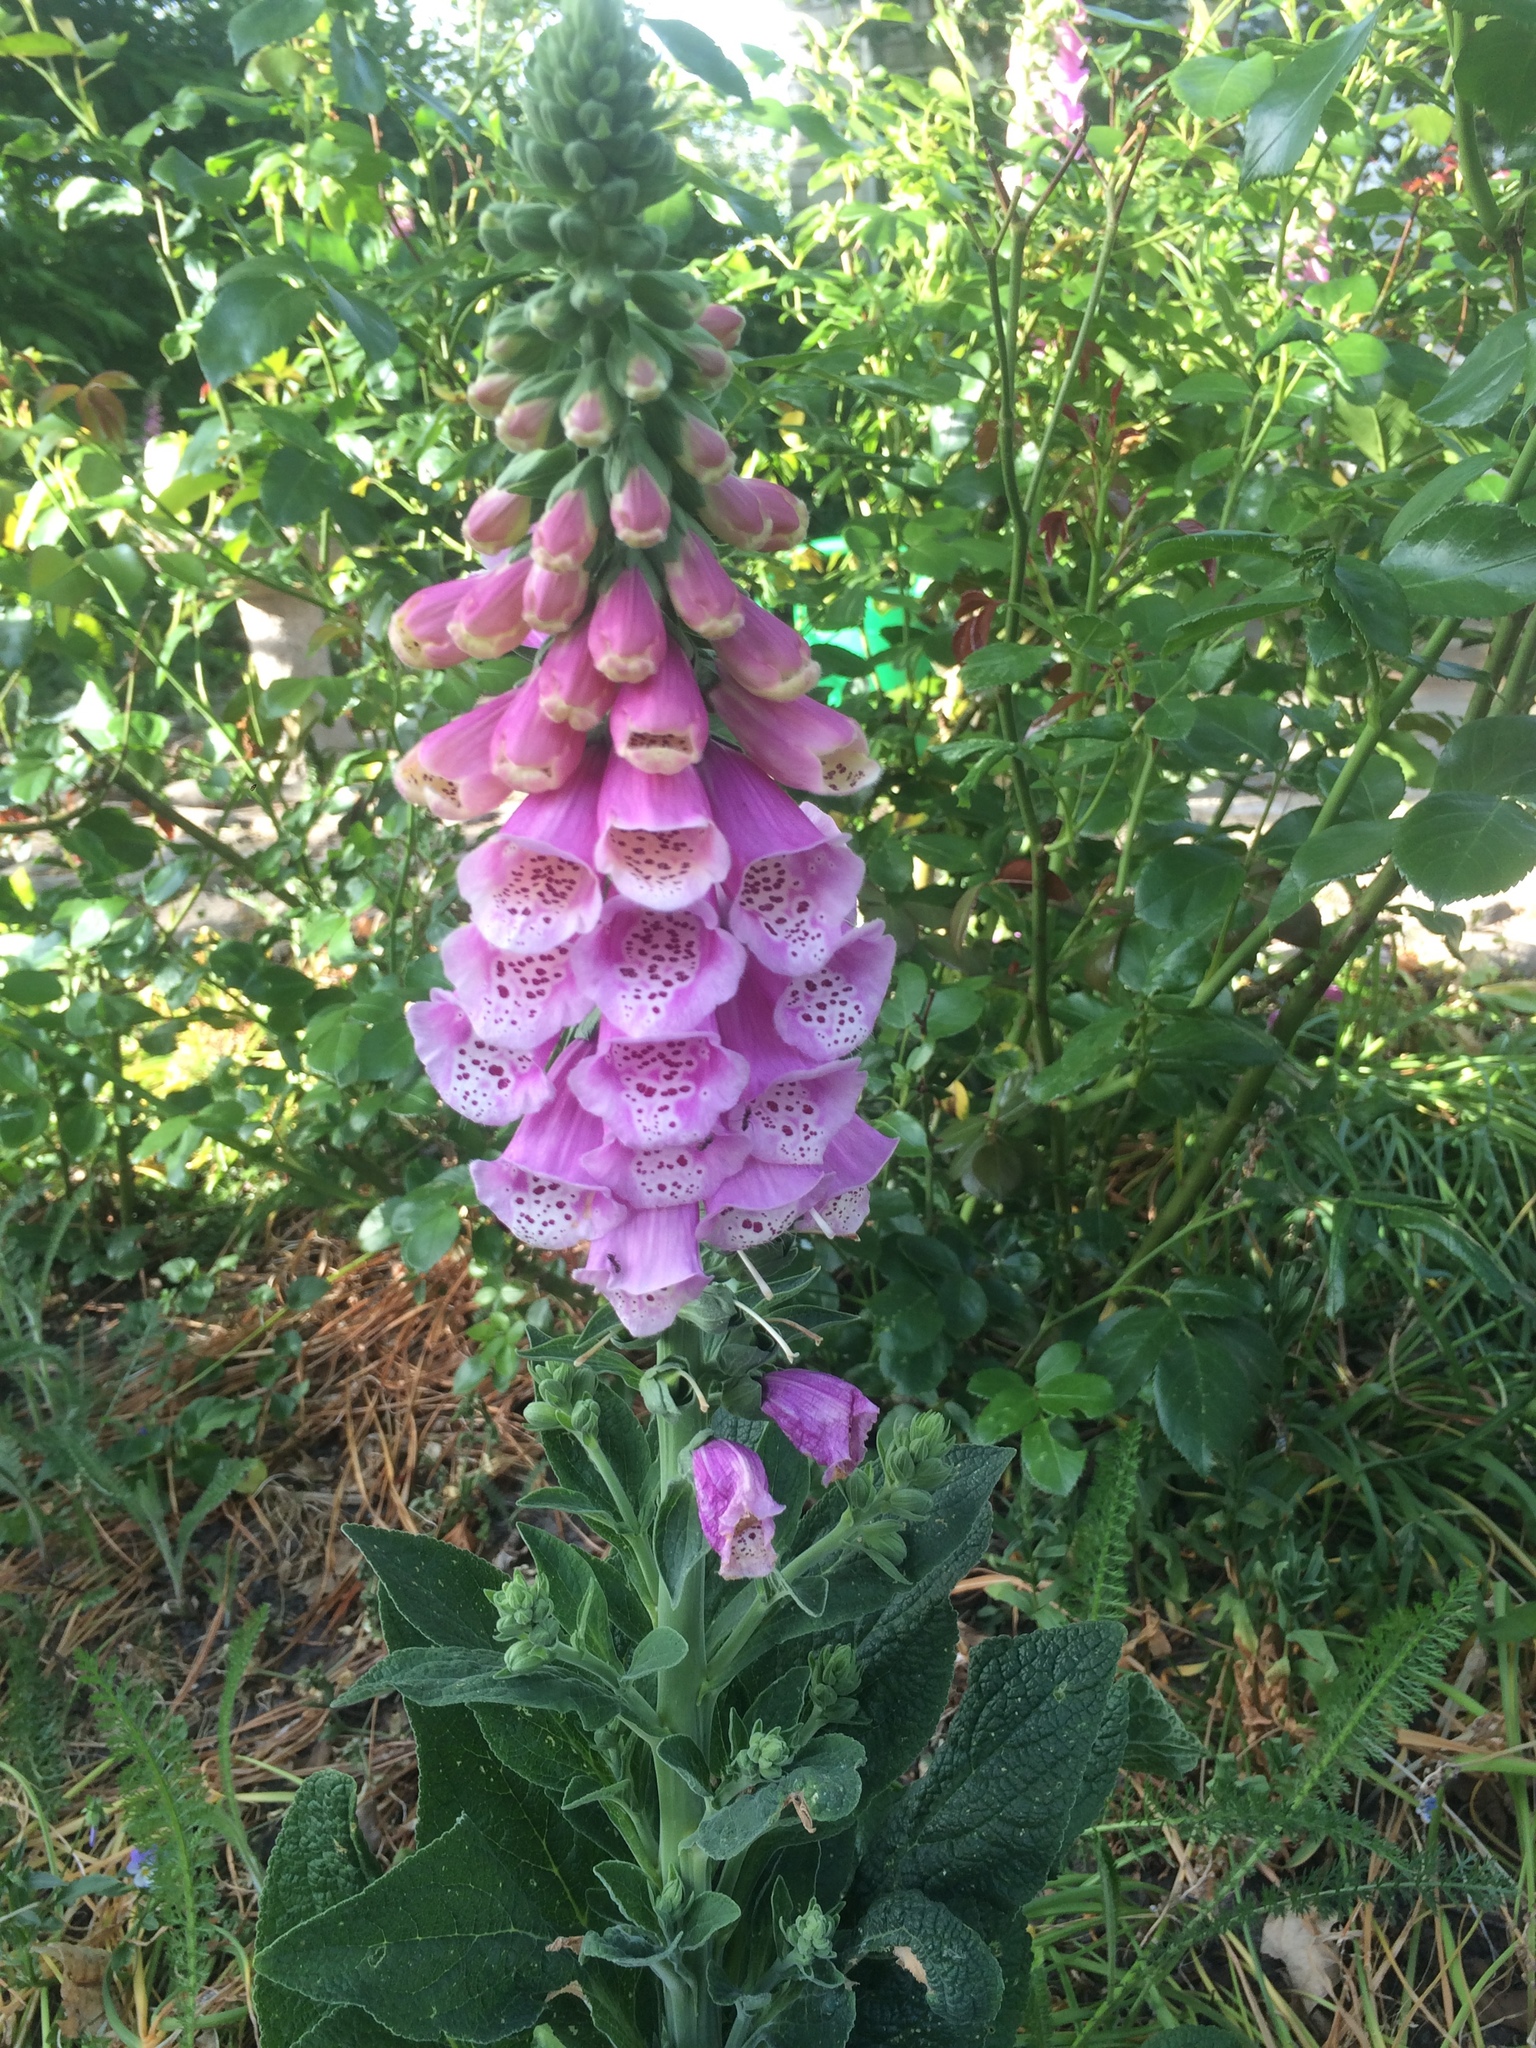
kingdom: Plantae
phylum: Tracheophyta
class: Magnoliopsida
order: Lamiales
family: Plantaginaceae
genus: Digitalis
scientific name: Digitalis purpurea
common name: Foxglove
